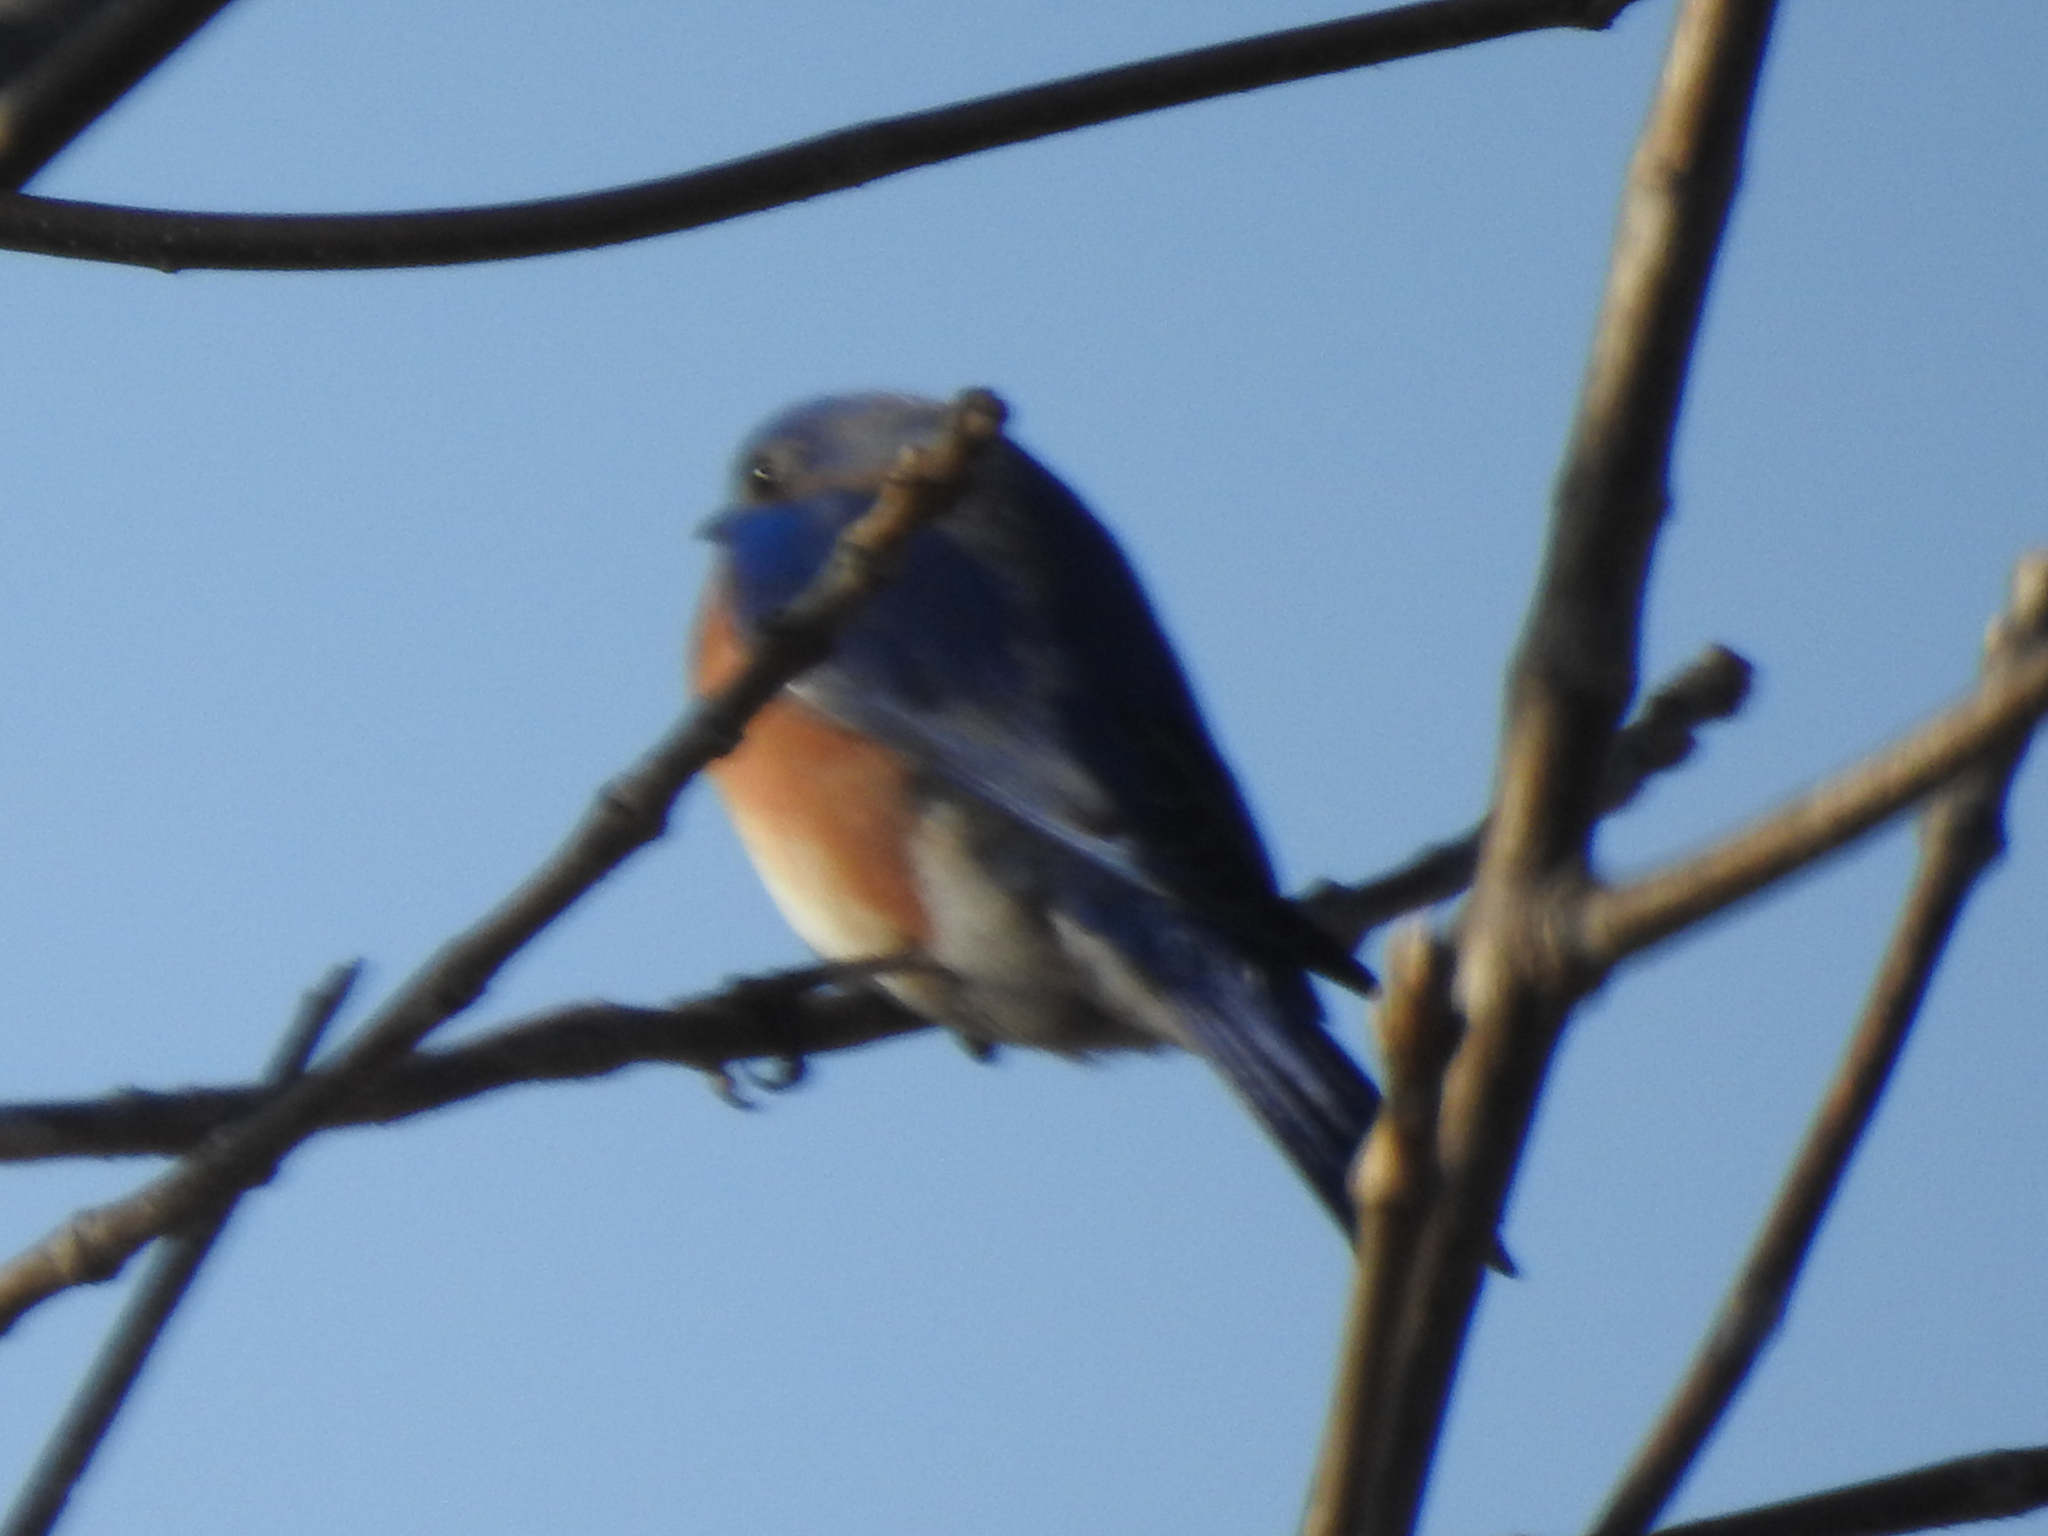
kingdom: Animalia
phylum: Chordata
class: Aves
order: Passeriformes
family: Turdidae
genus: Sialia
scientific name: Sialia sialis
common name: Eastern bluebird
